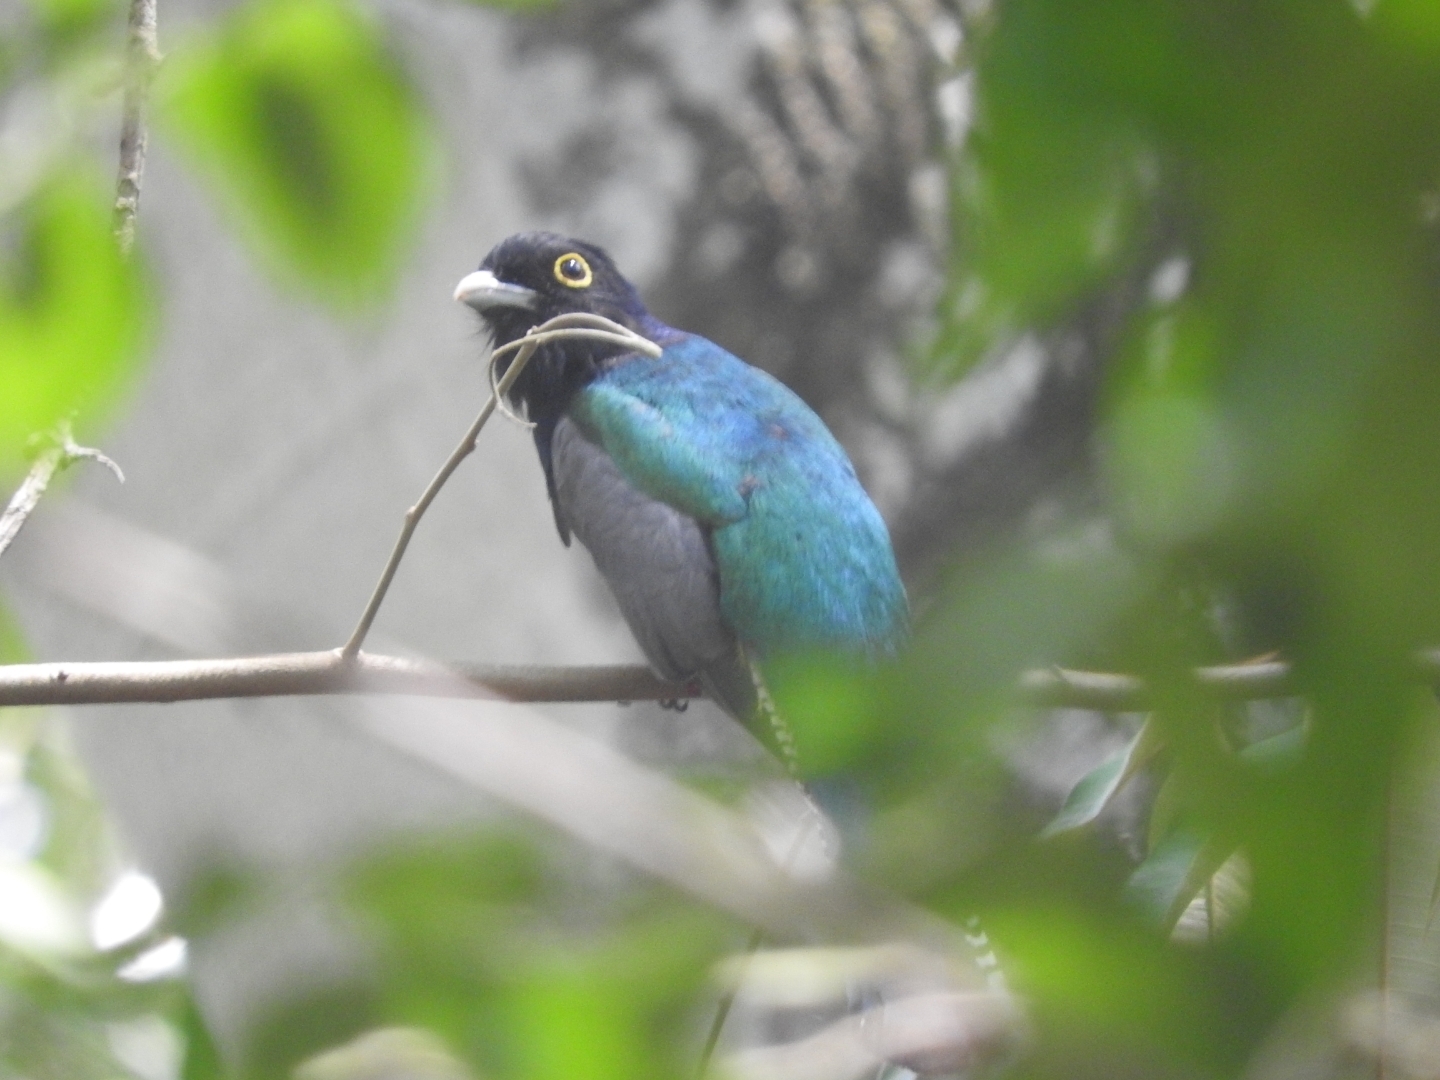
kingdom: Animalia
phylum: Chordata
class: Aves
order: Trogoniformes
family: Trogonidae
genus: Trogon
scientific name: Trogon caligatus
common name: Gartered trogon
